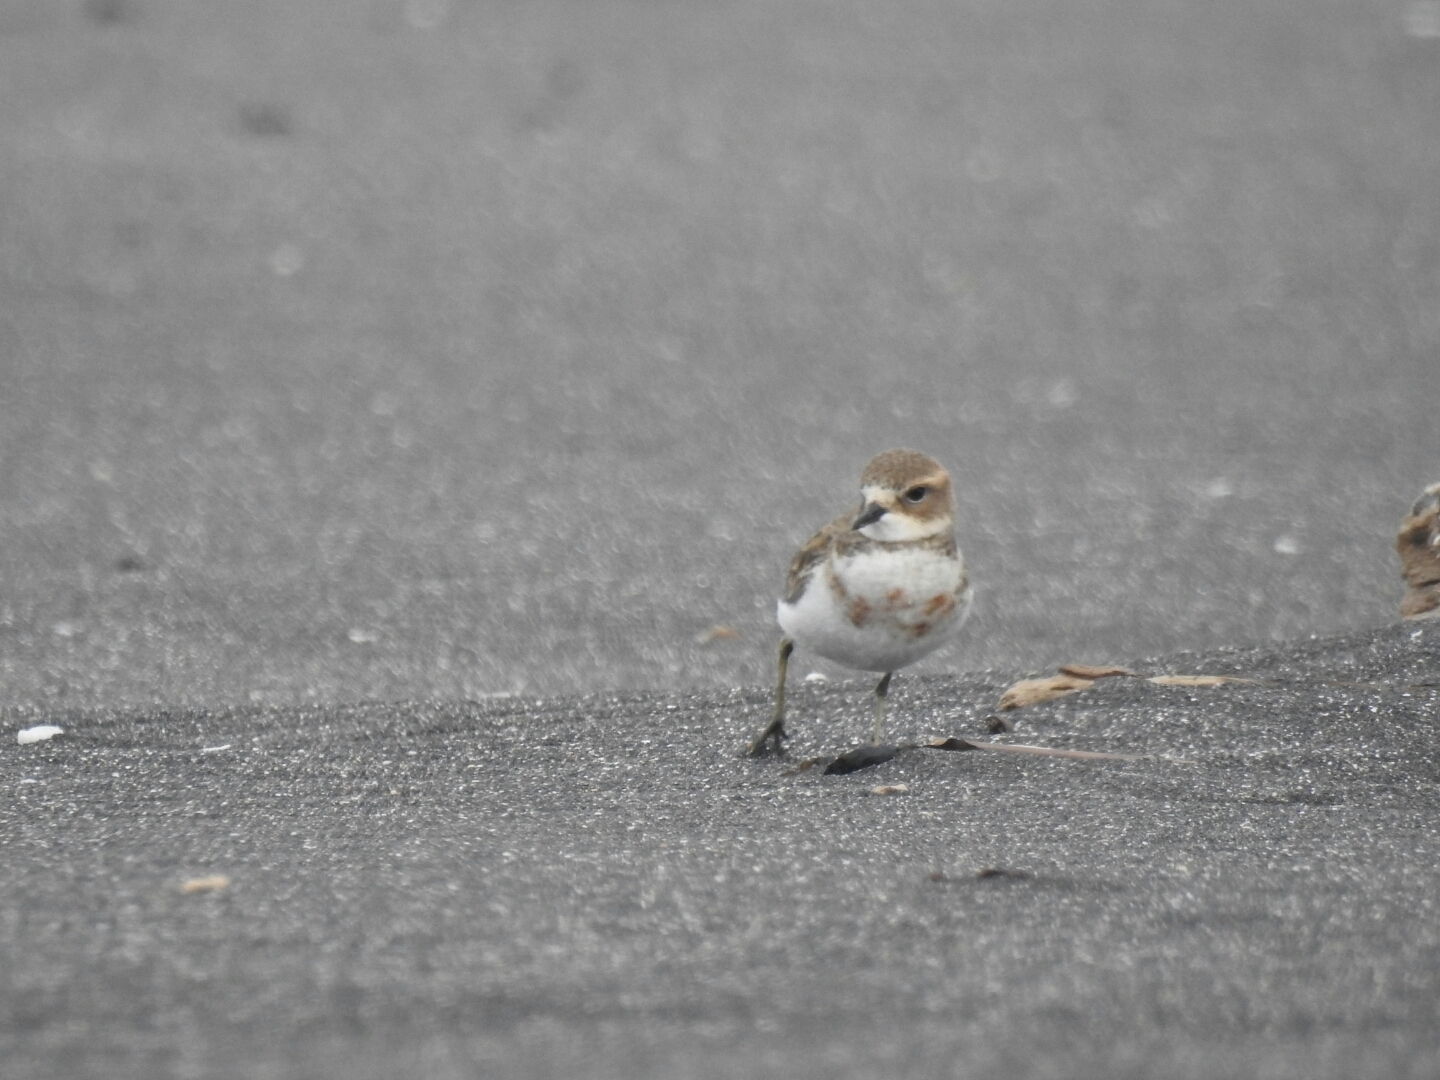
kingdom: Animalia
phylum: Chordata
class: Aves
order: Charadriiformes
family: Charadriidae
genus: Anarhynchus
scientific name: Anarhynchus
